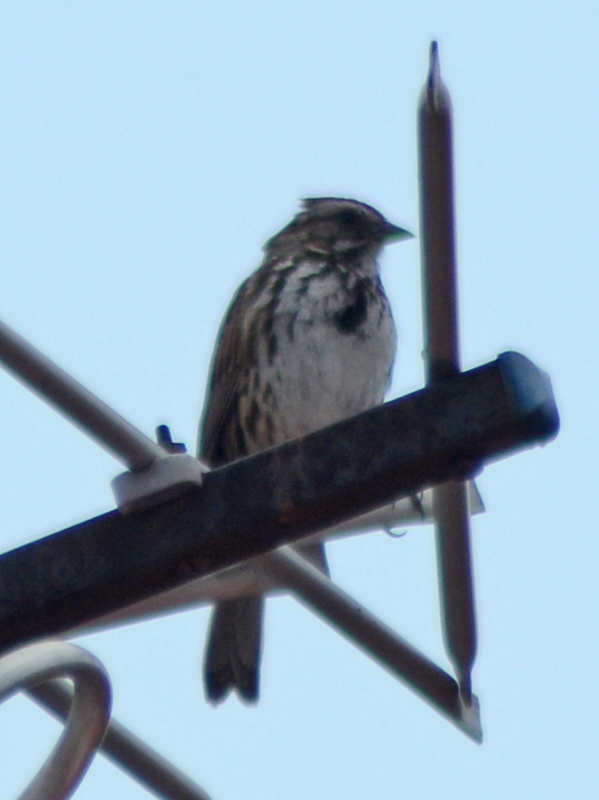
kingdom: Animalia
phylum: Chordata
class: Aves
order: Passeriformes
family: Passerellidae
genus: Melospiza
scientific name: Melospiza melodia
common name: Song sparrow
